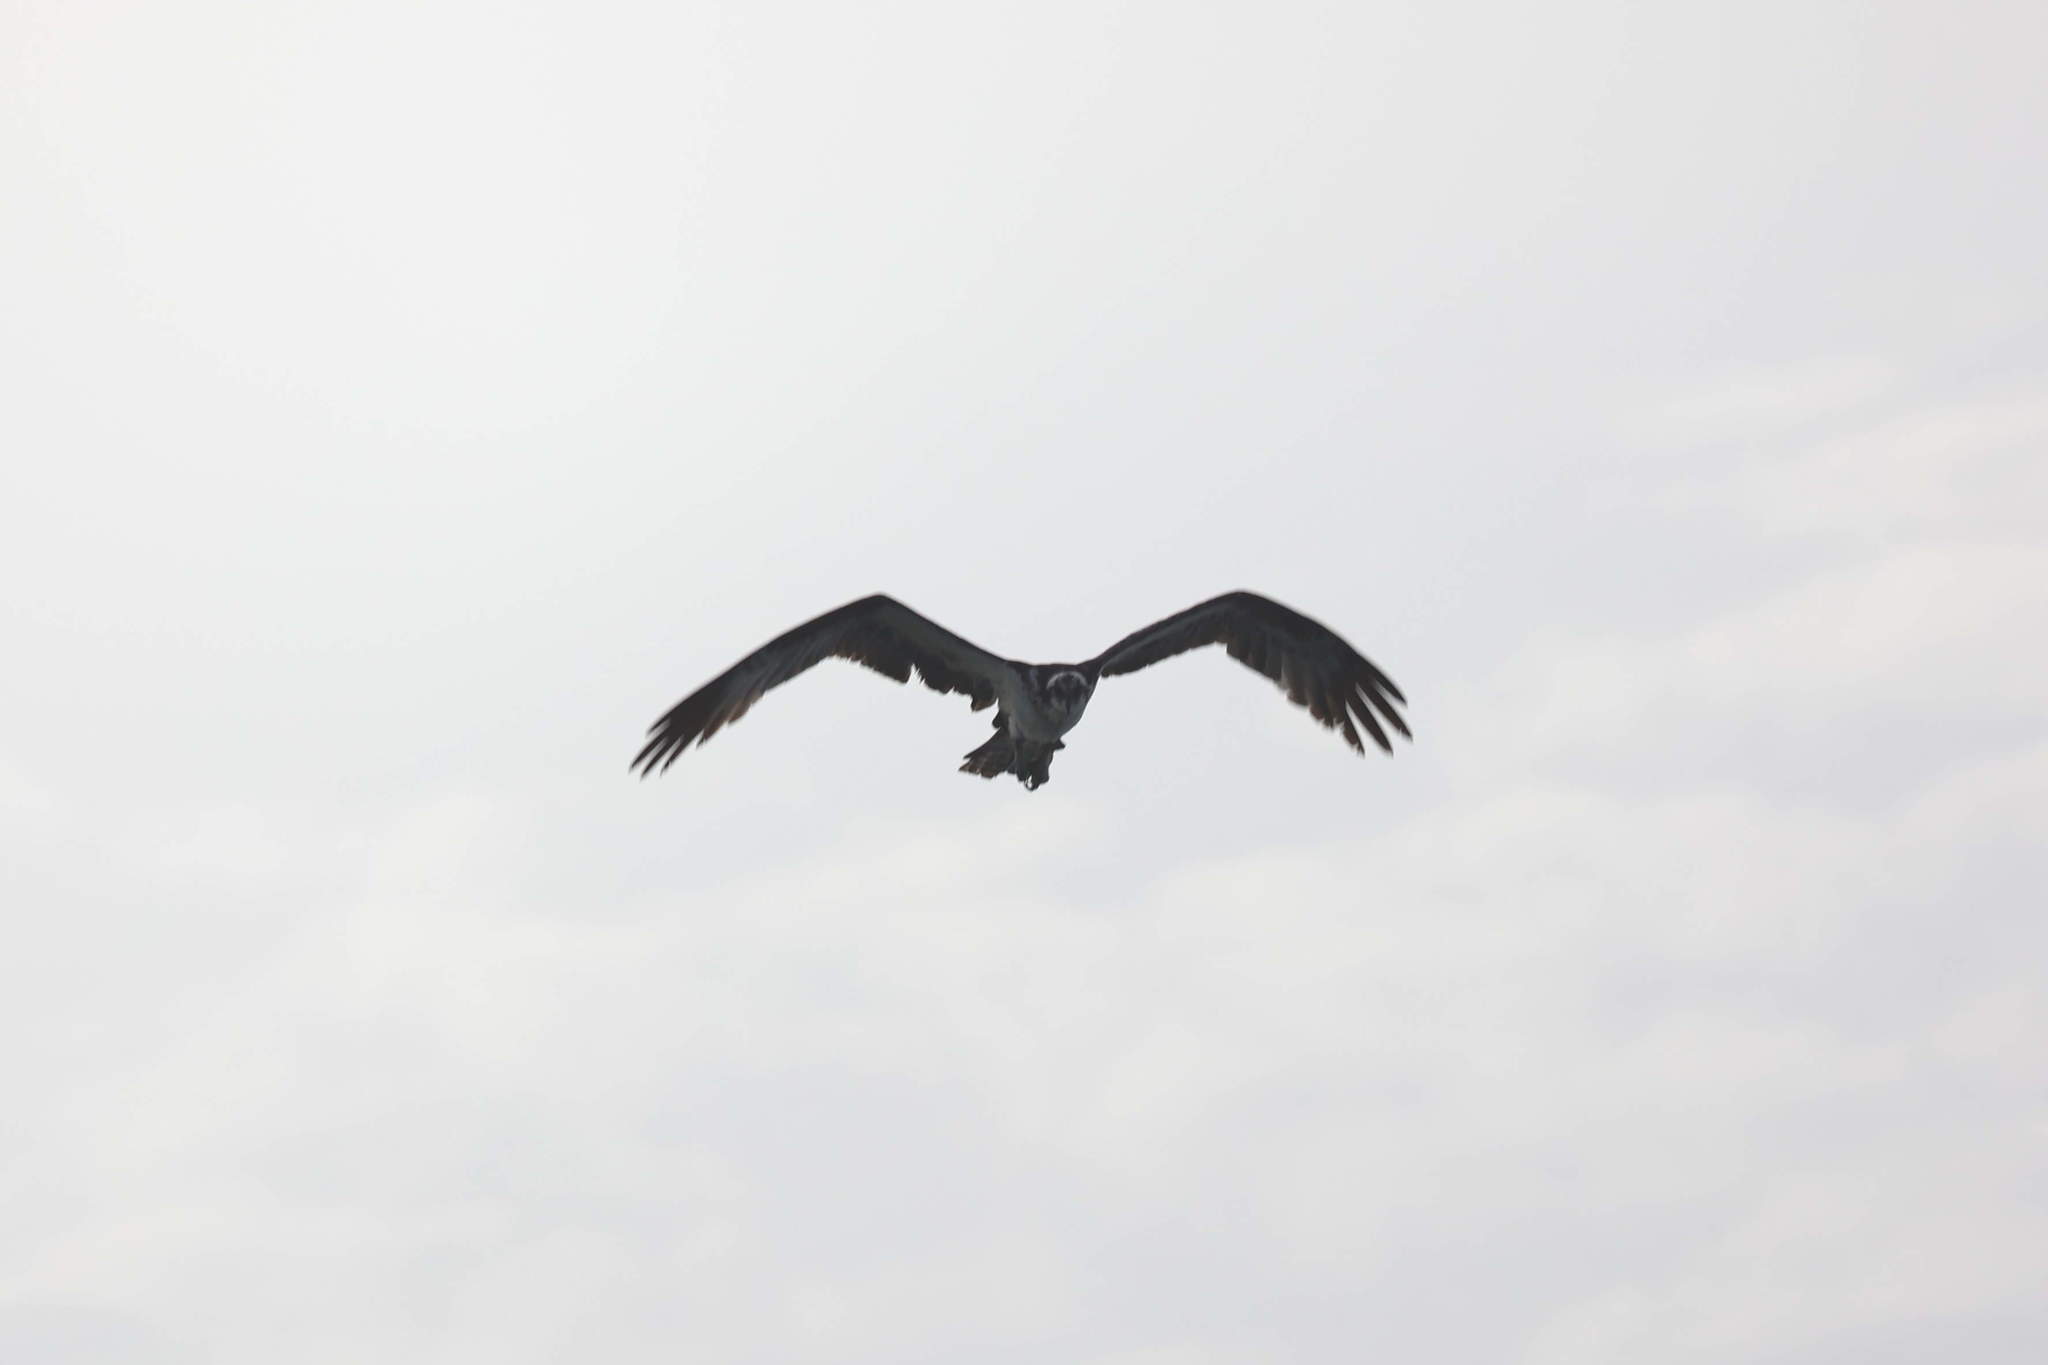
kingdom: Animalia
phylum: Chordata
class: Aves
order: Accipitriformes
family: Pandionidae
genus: Pandion
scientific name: Pandion haliaetus
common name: Osprey
